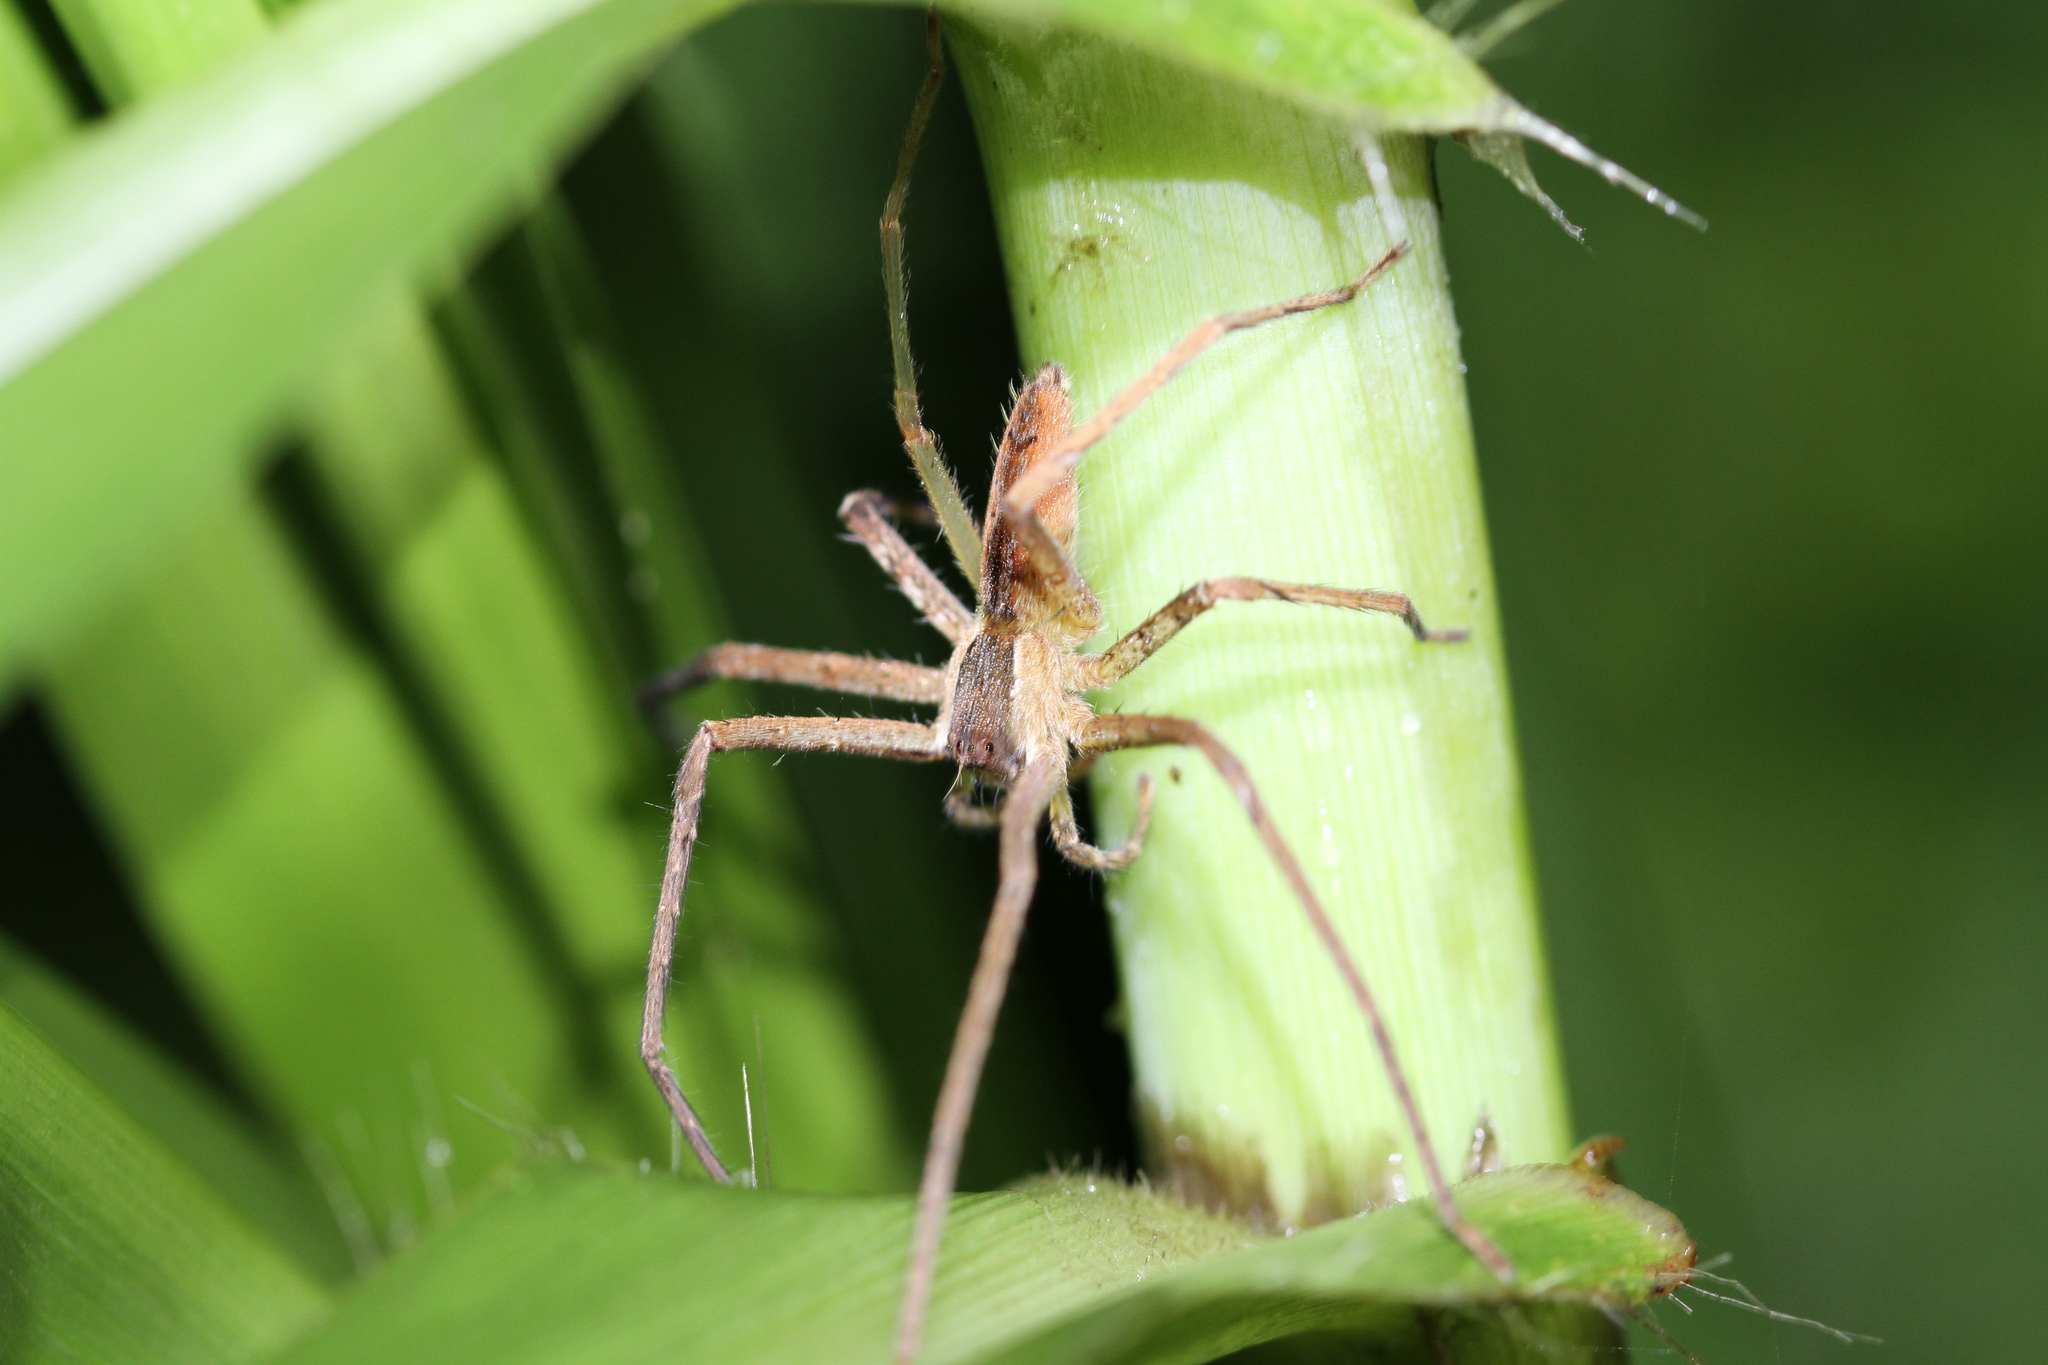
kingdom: Animalia
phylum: Arthropoda
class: Arachnida
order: Araneae
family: Sparassidae
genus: Heteropoda
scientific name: Heteropoda ocyalina
